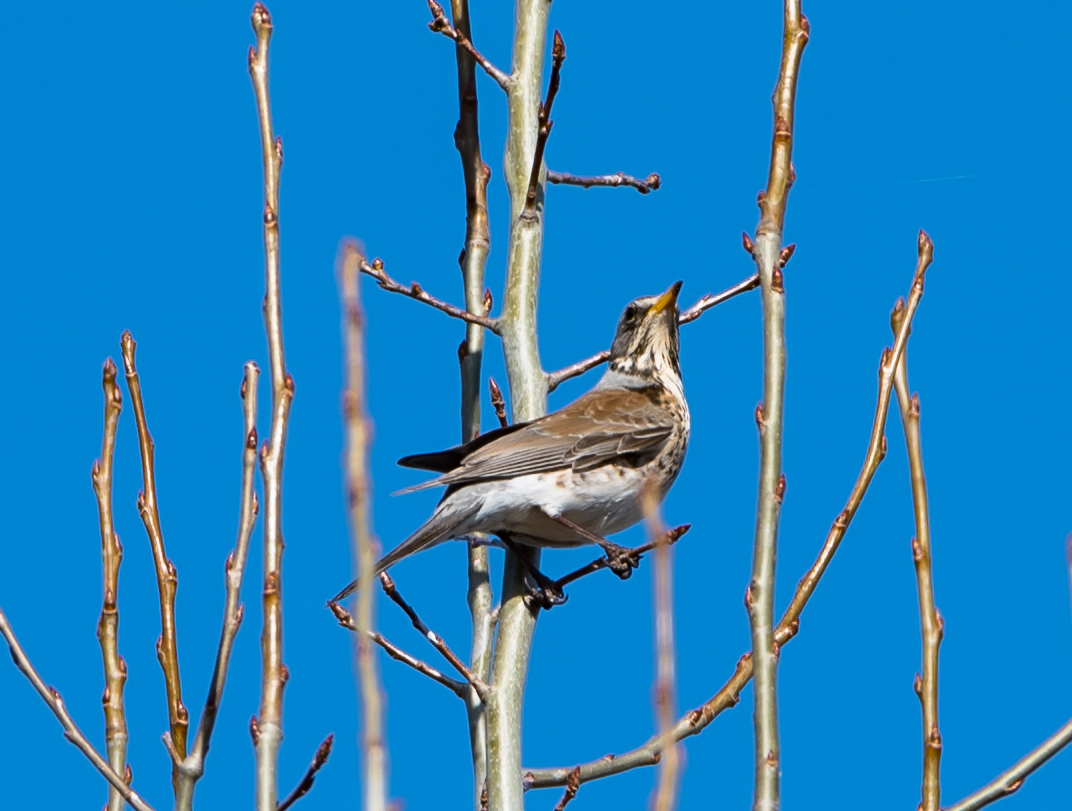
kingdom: Animalia
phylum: Chordata
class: Aves
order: Passeriformes
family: Turdidae
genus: Turdus
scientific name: Turdus pilaris
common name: Fieldfare
